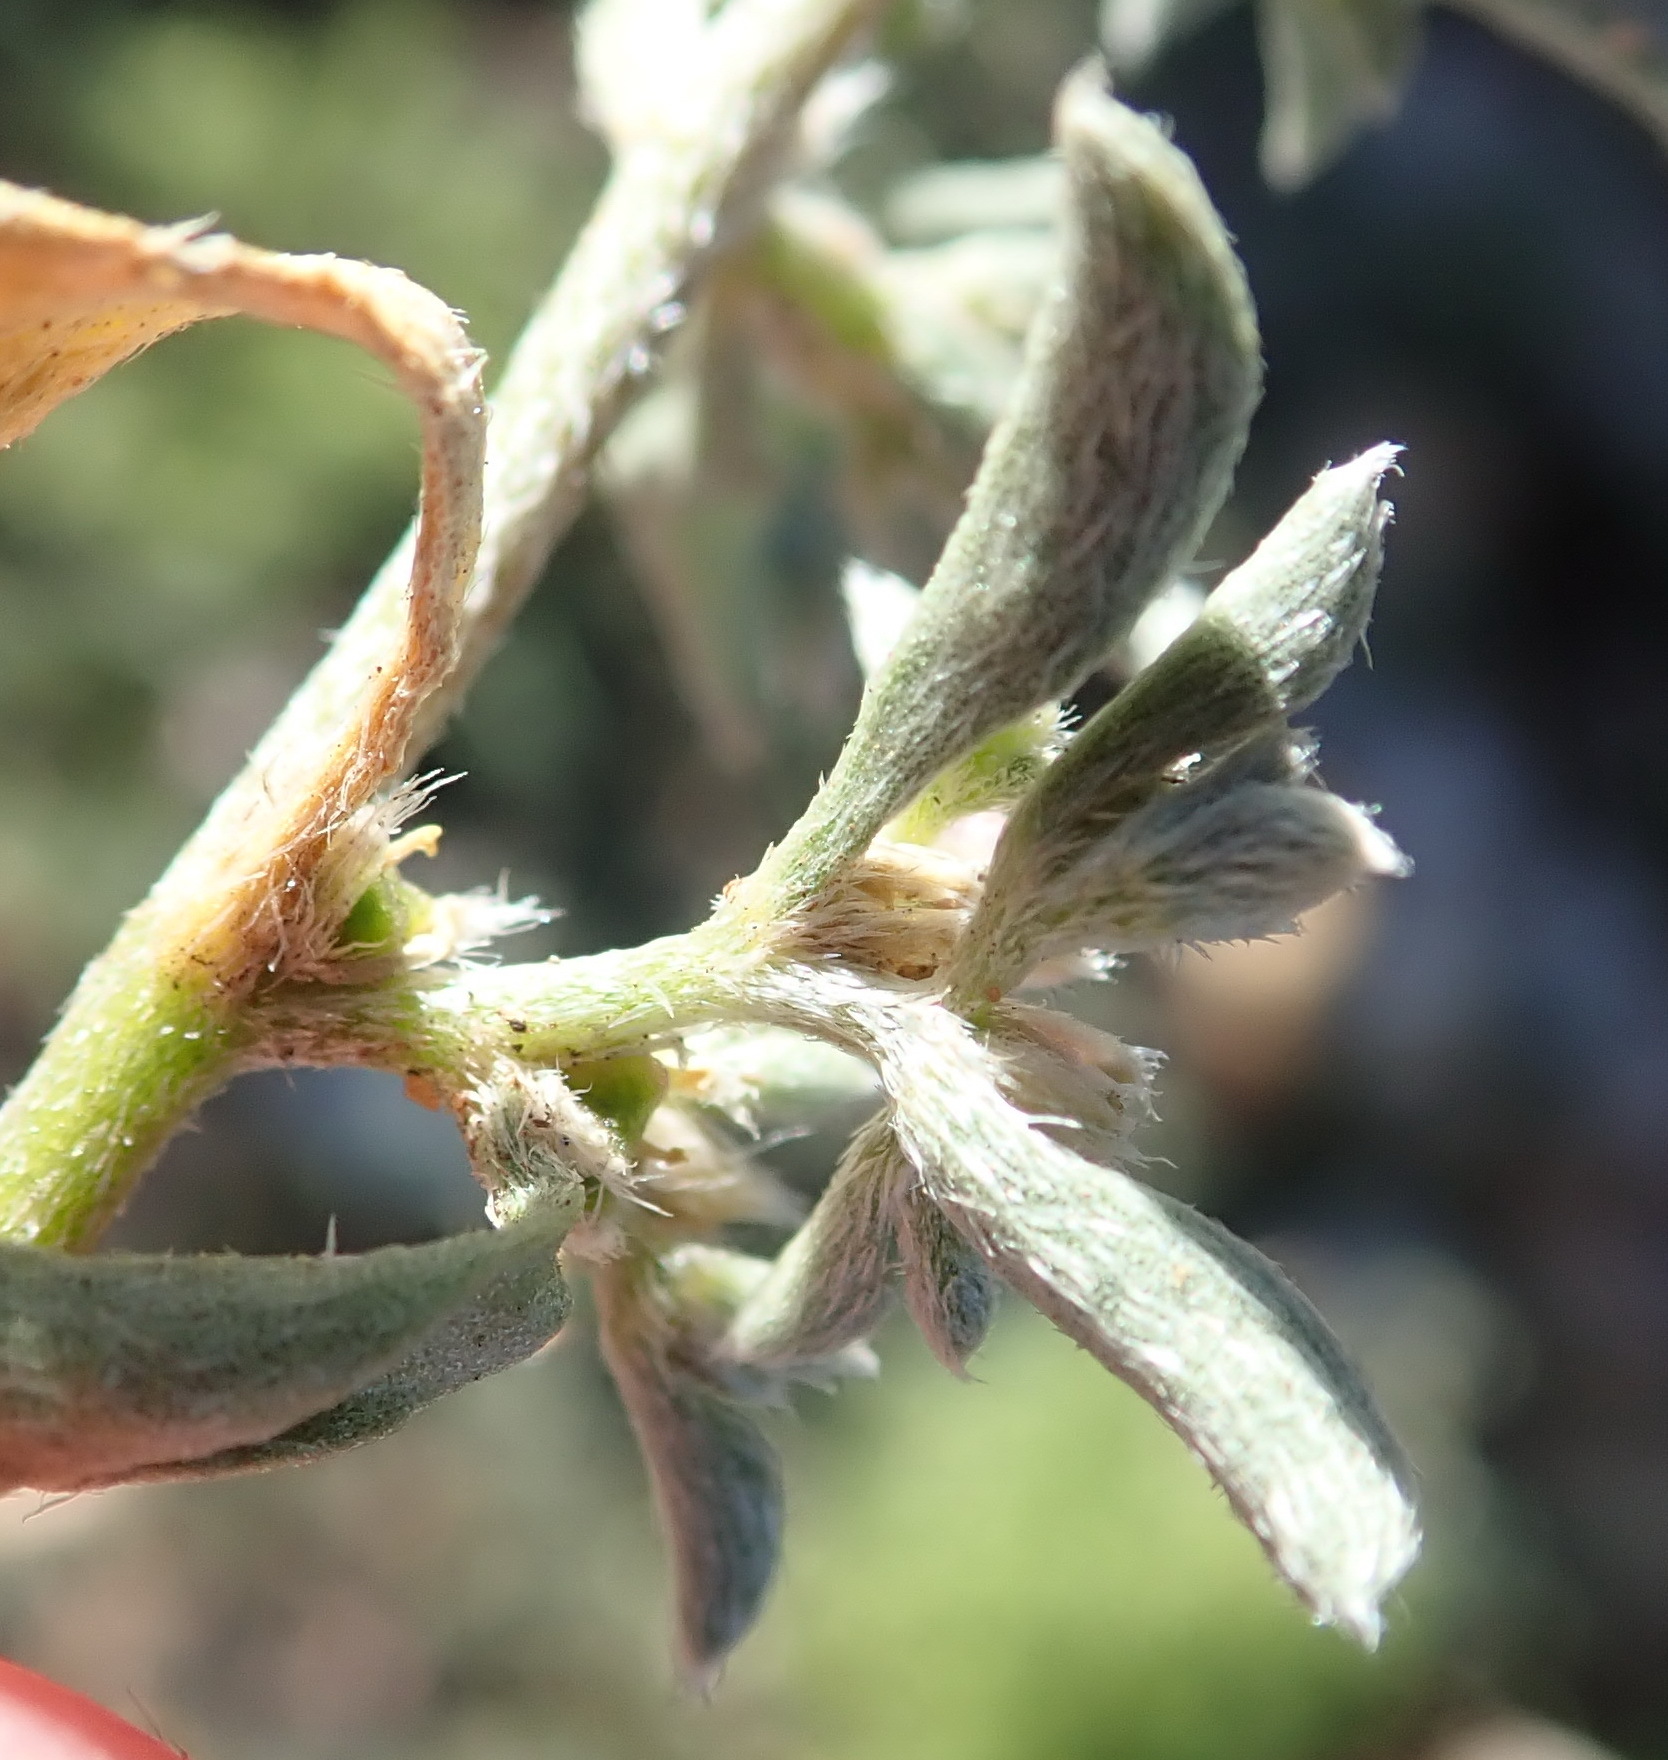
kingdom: Plantae
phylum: Tracheophyta
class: Magnoliopsida
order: Caryophyllales
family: Aizoaceae
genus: Aizoon
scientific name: Aizoon secundum
